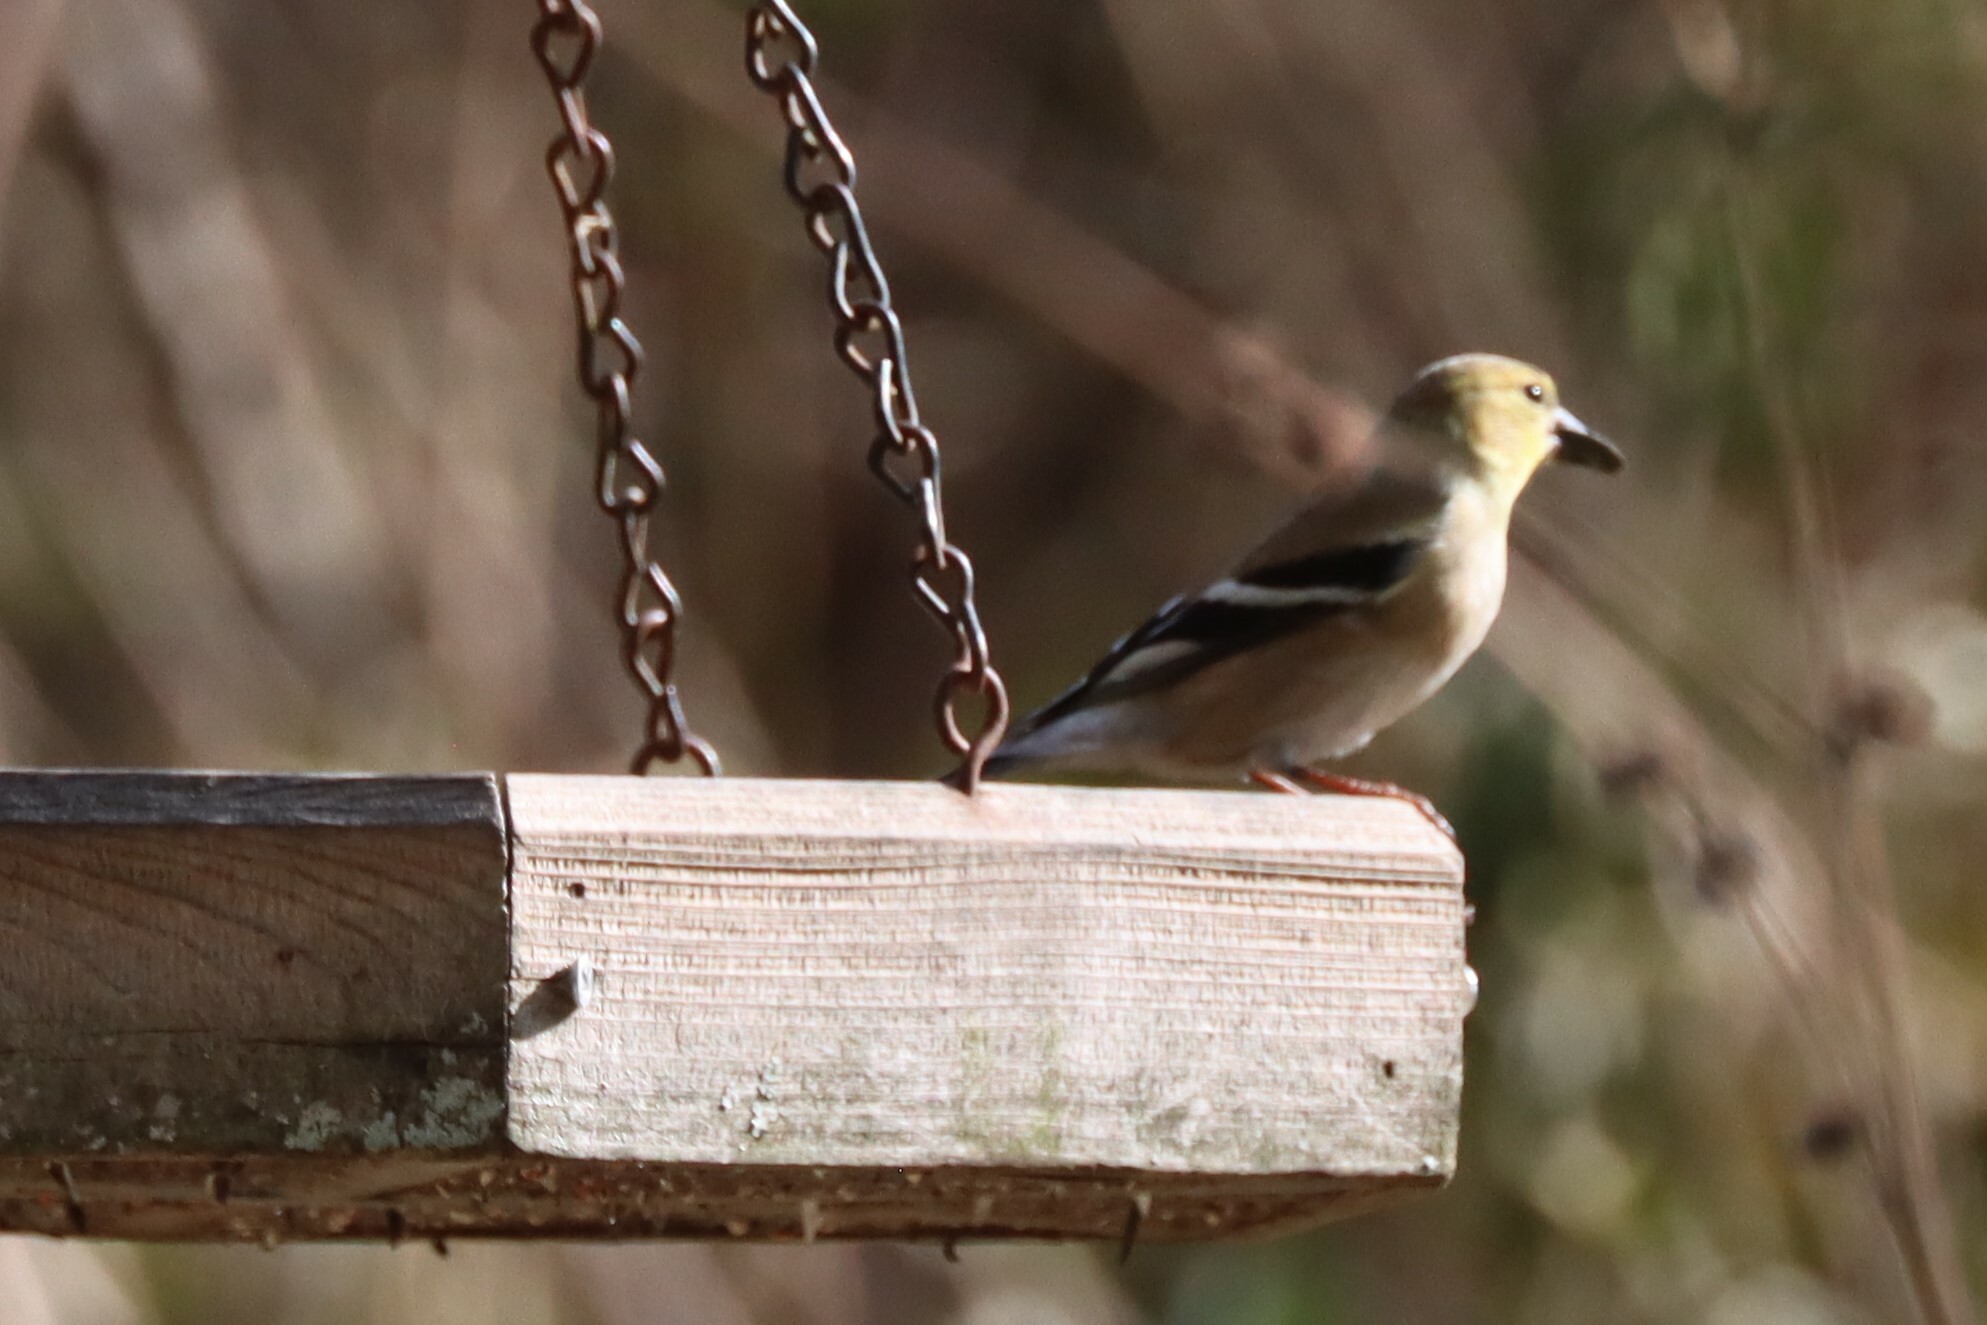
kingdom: Animalia
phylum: Chordata
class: Aves
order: Passeriformes
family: Fringillidae
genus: Spinus
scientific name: Spinus tristis
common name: American goldfinch
